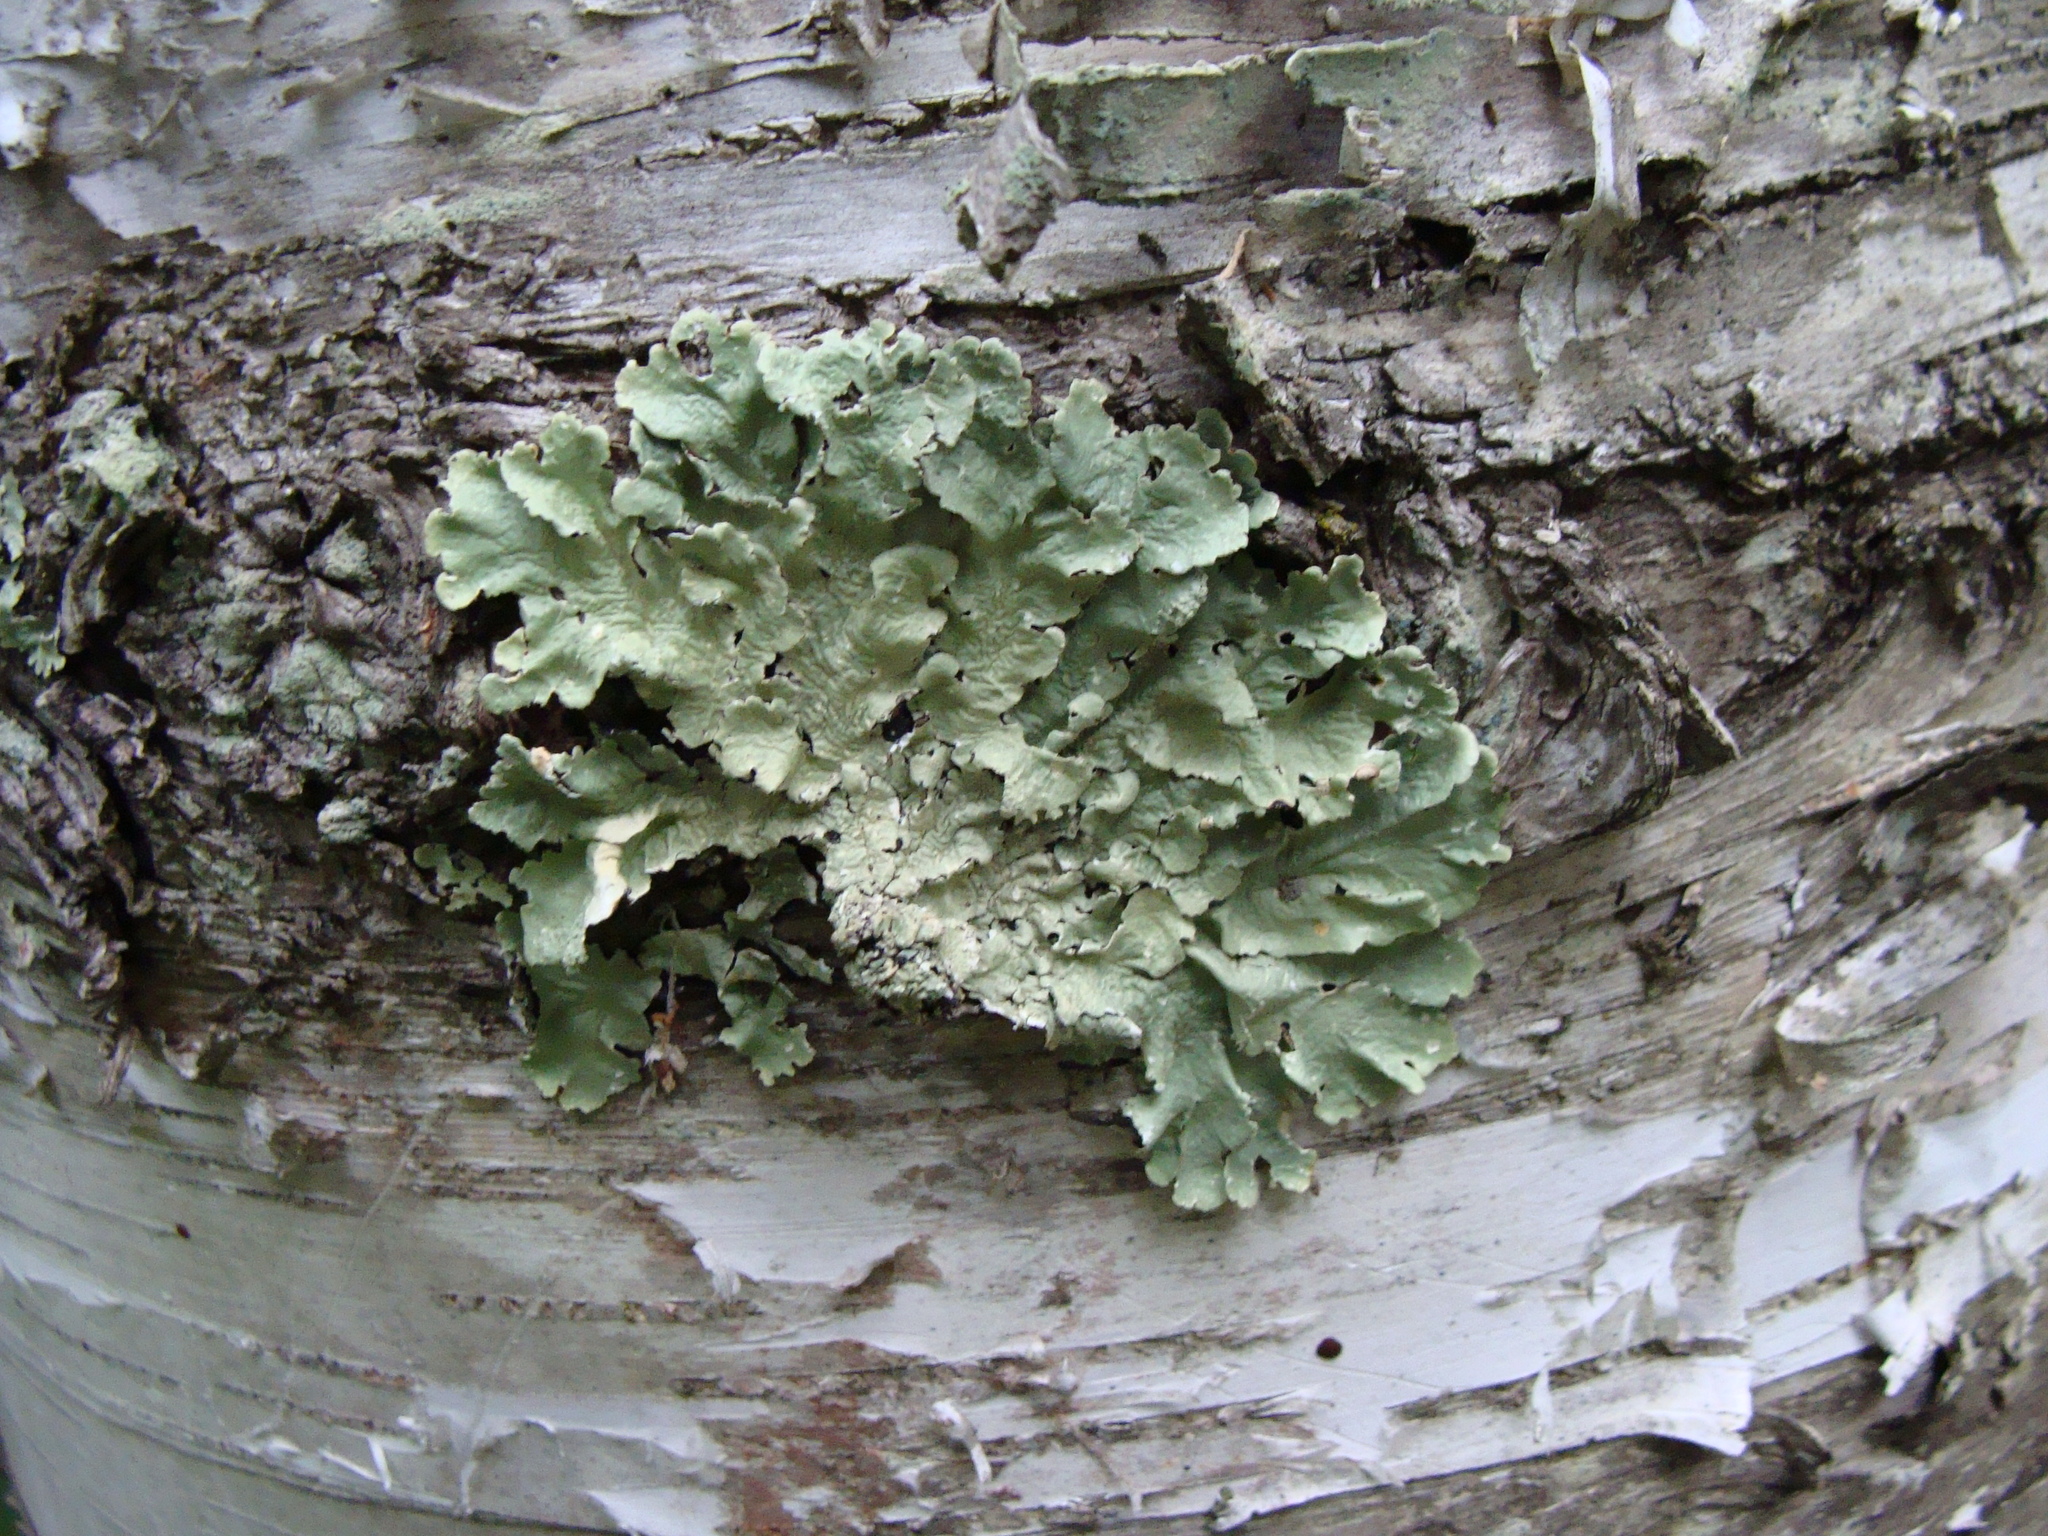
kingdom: Fungi
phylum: Ascomycota
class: Lecanoromycetes
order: Lecanorales
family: Parmeliaceae
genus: Flavoparmelia
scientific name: Flavoparmelia caperata
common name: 40-mile per hour lichen
